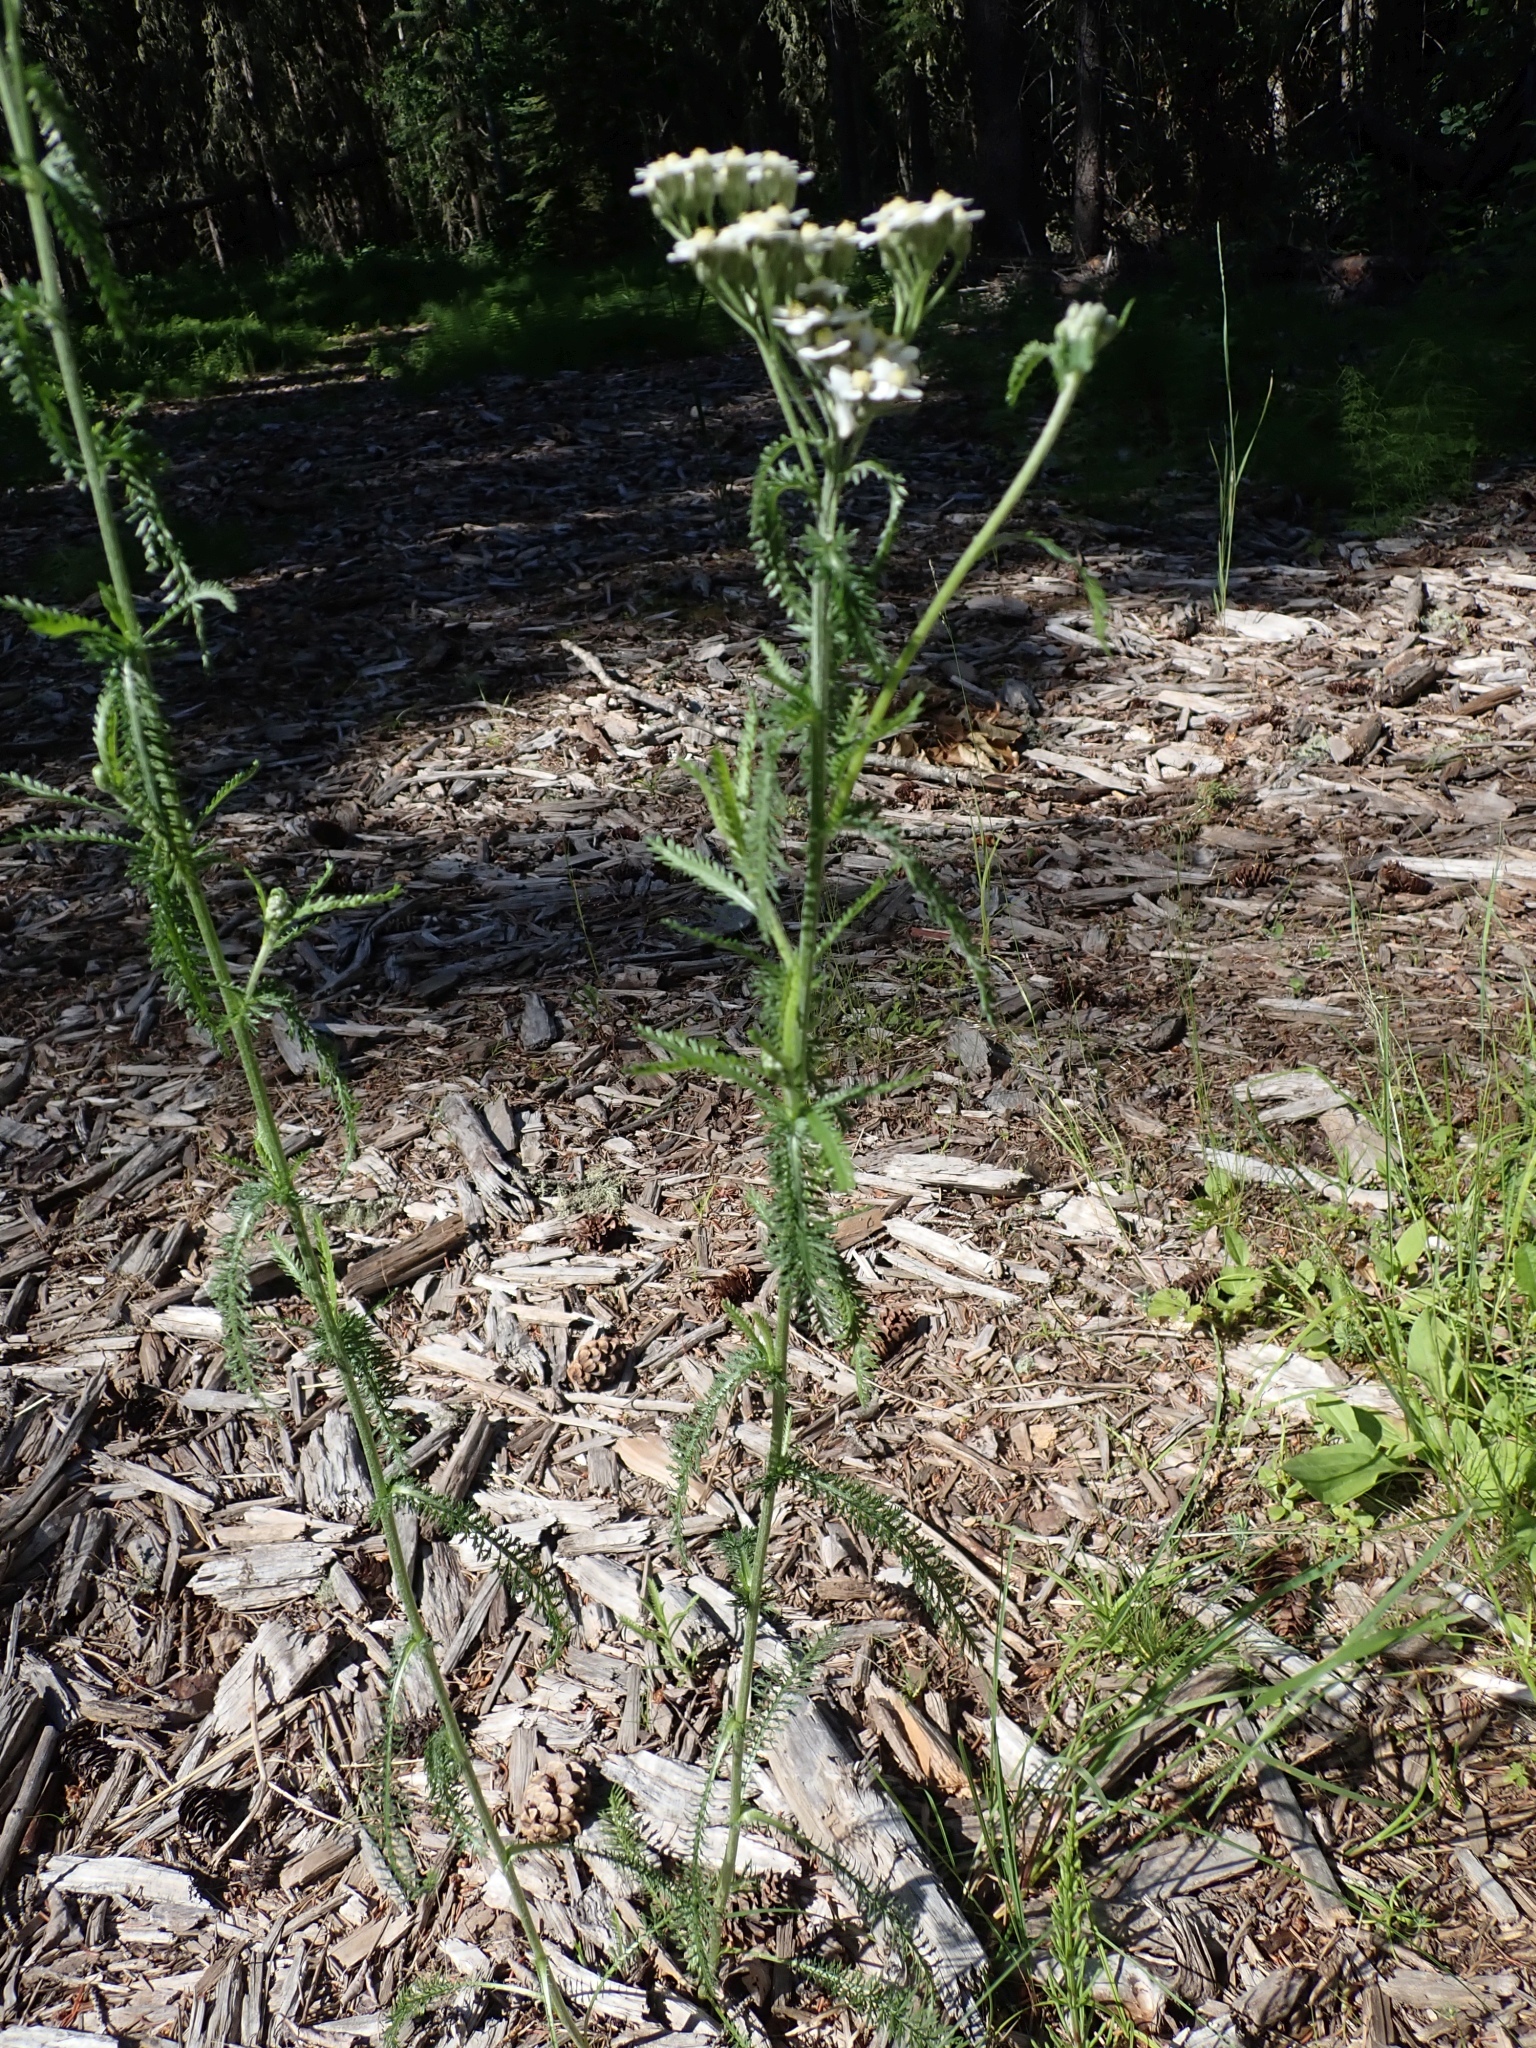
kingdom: Plantae
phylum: Tracheophyta
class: Magnoliopsida
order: Asterales
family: Asteraceae
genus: Achillea
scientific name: Achillea millefolium
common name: Yarrow
